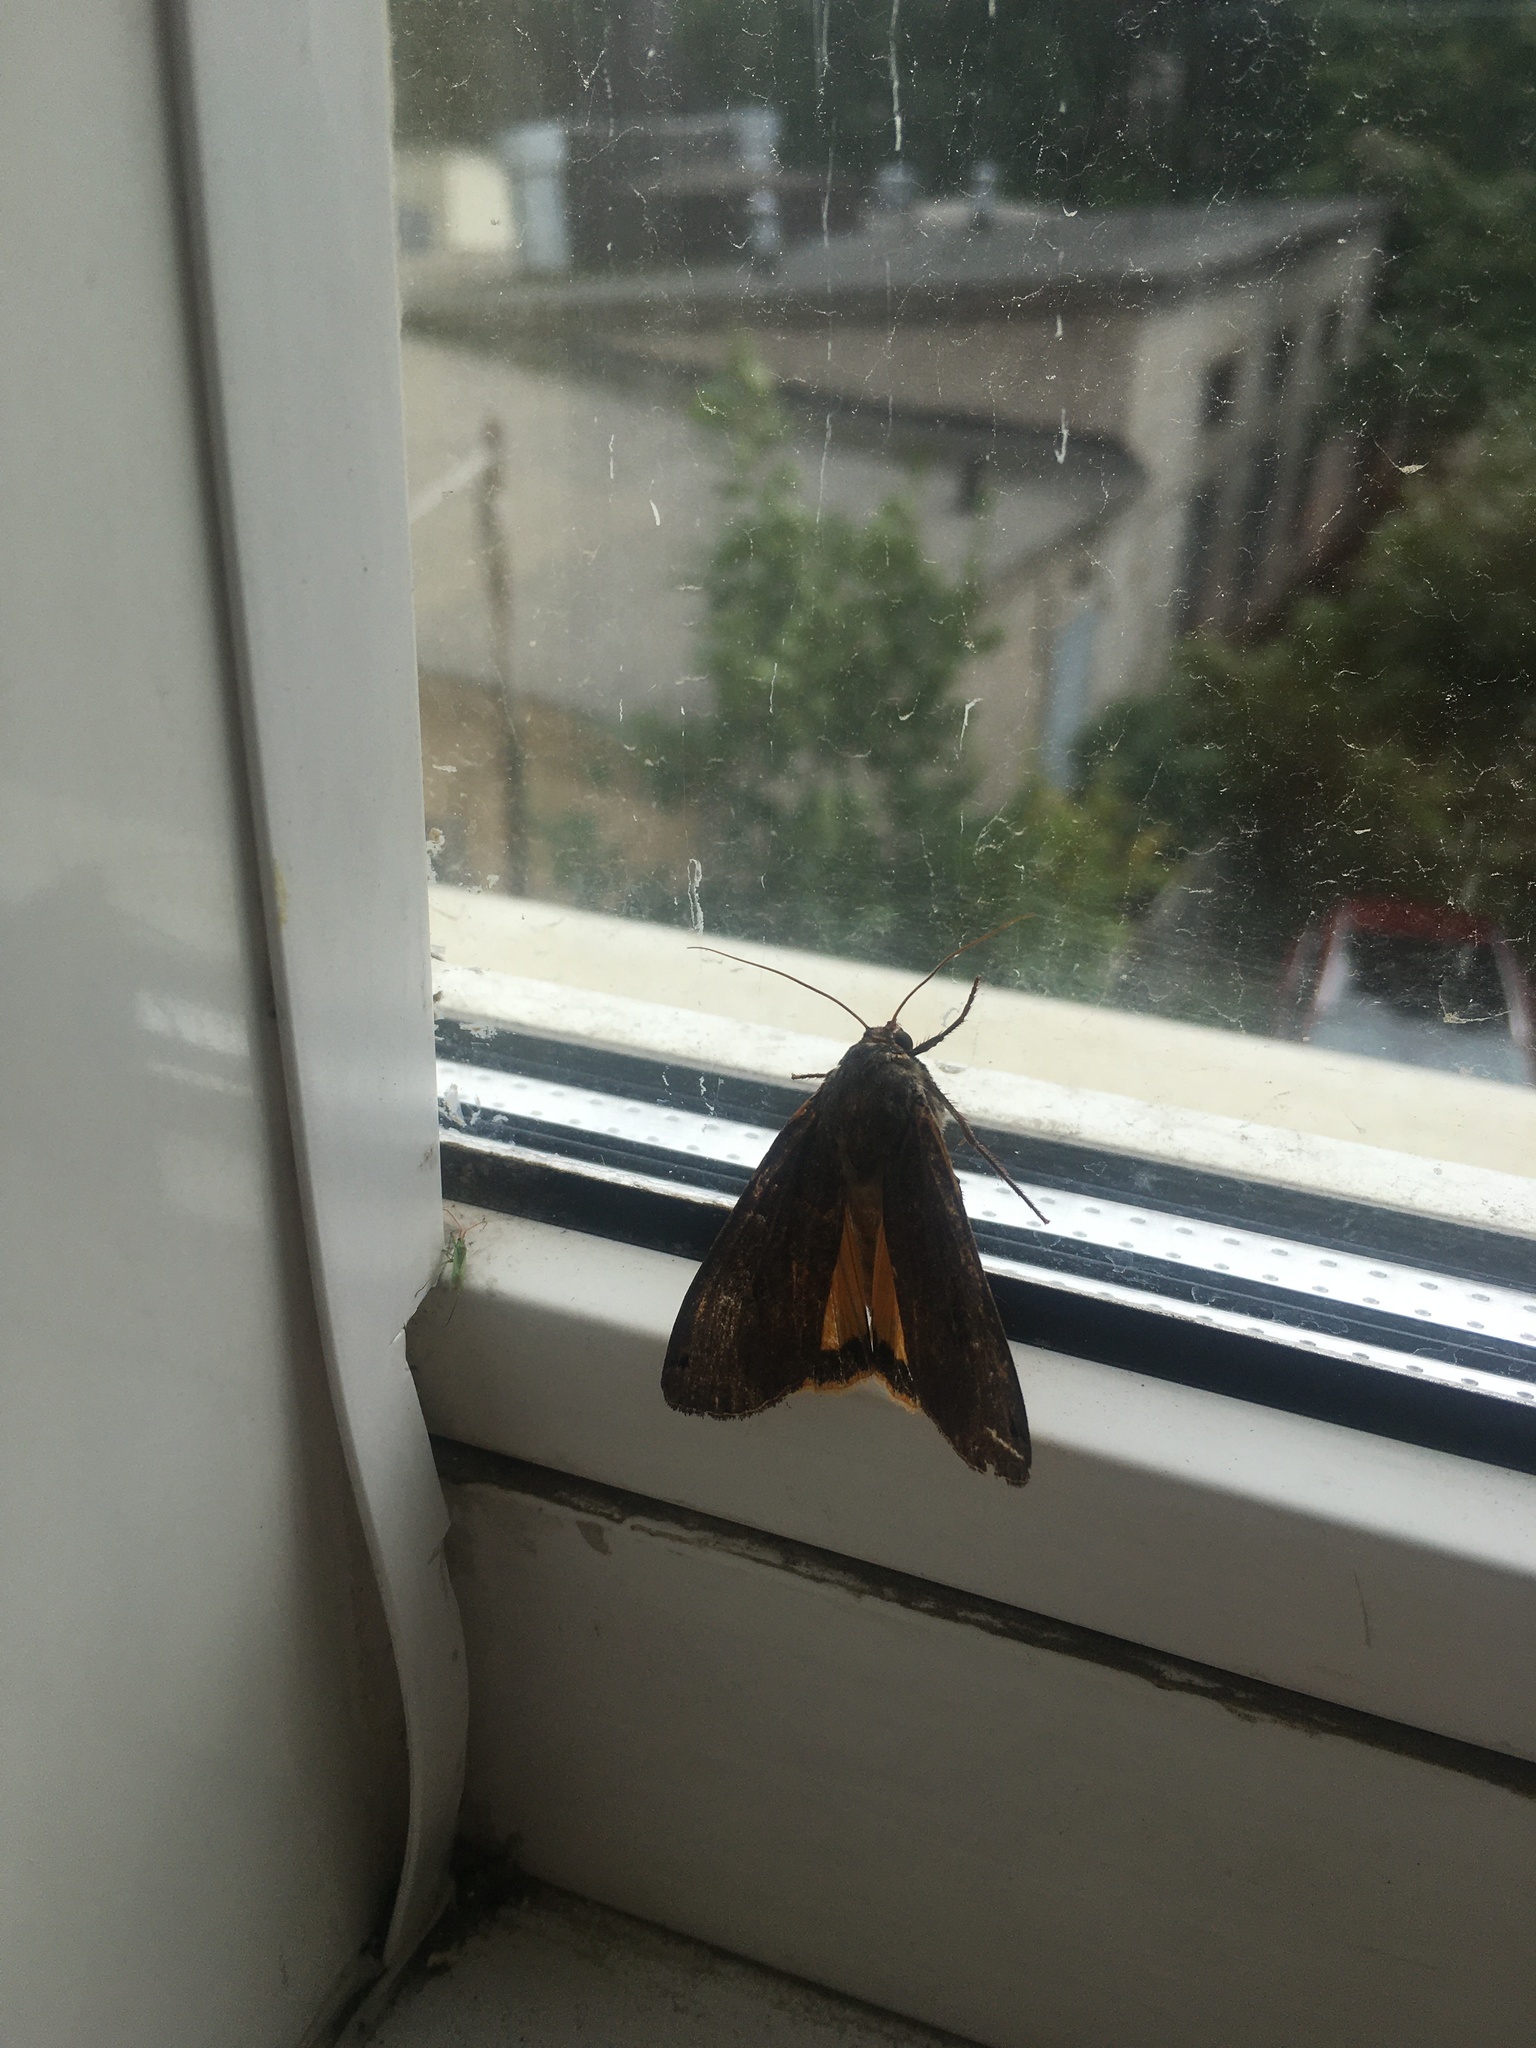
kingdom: Animalia
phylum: Arthropoda
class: Insecta
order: Lepidoptera
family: Noctuidae
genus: Noctua
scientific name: Noctua pronuba
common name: Large yellow underwing
